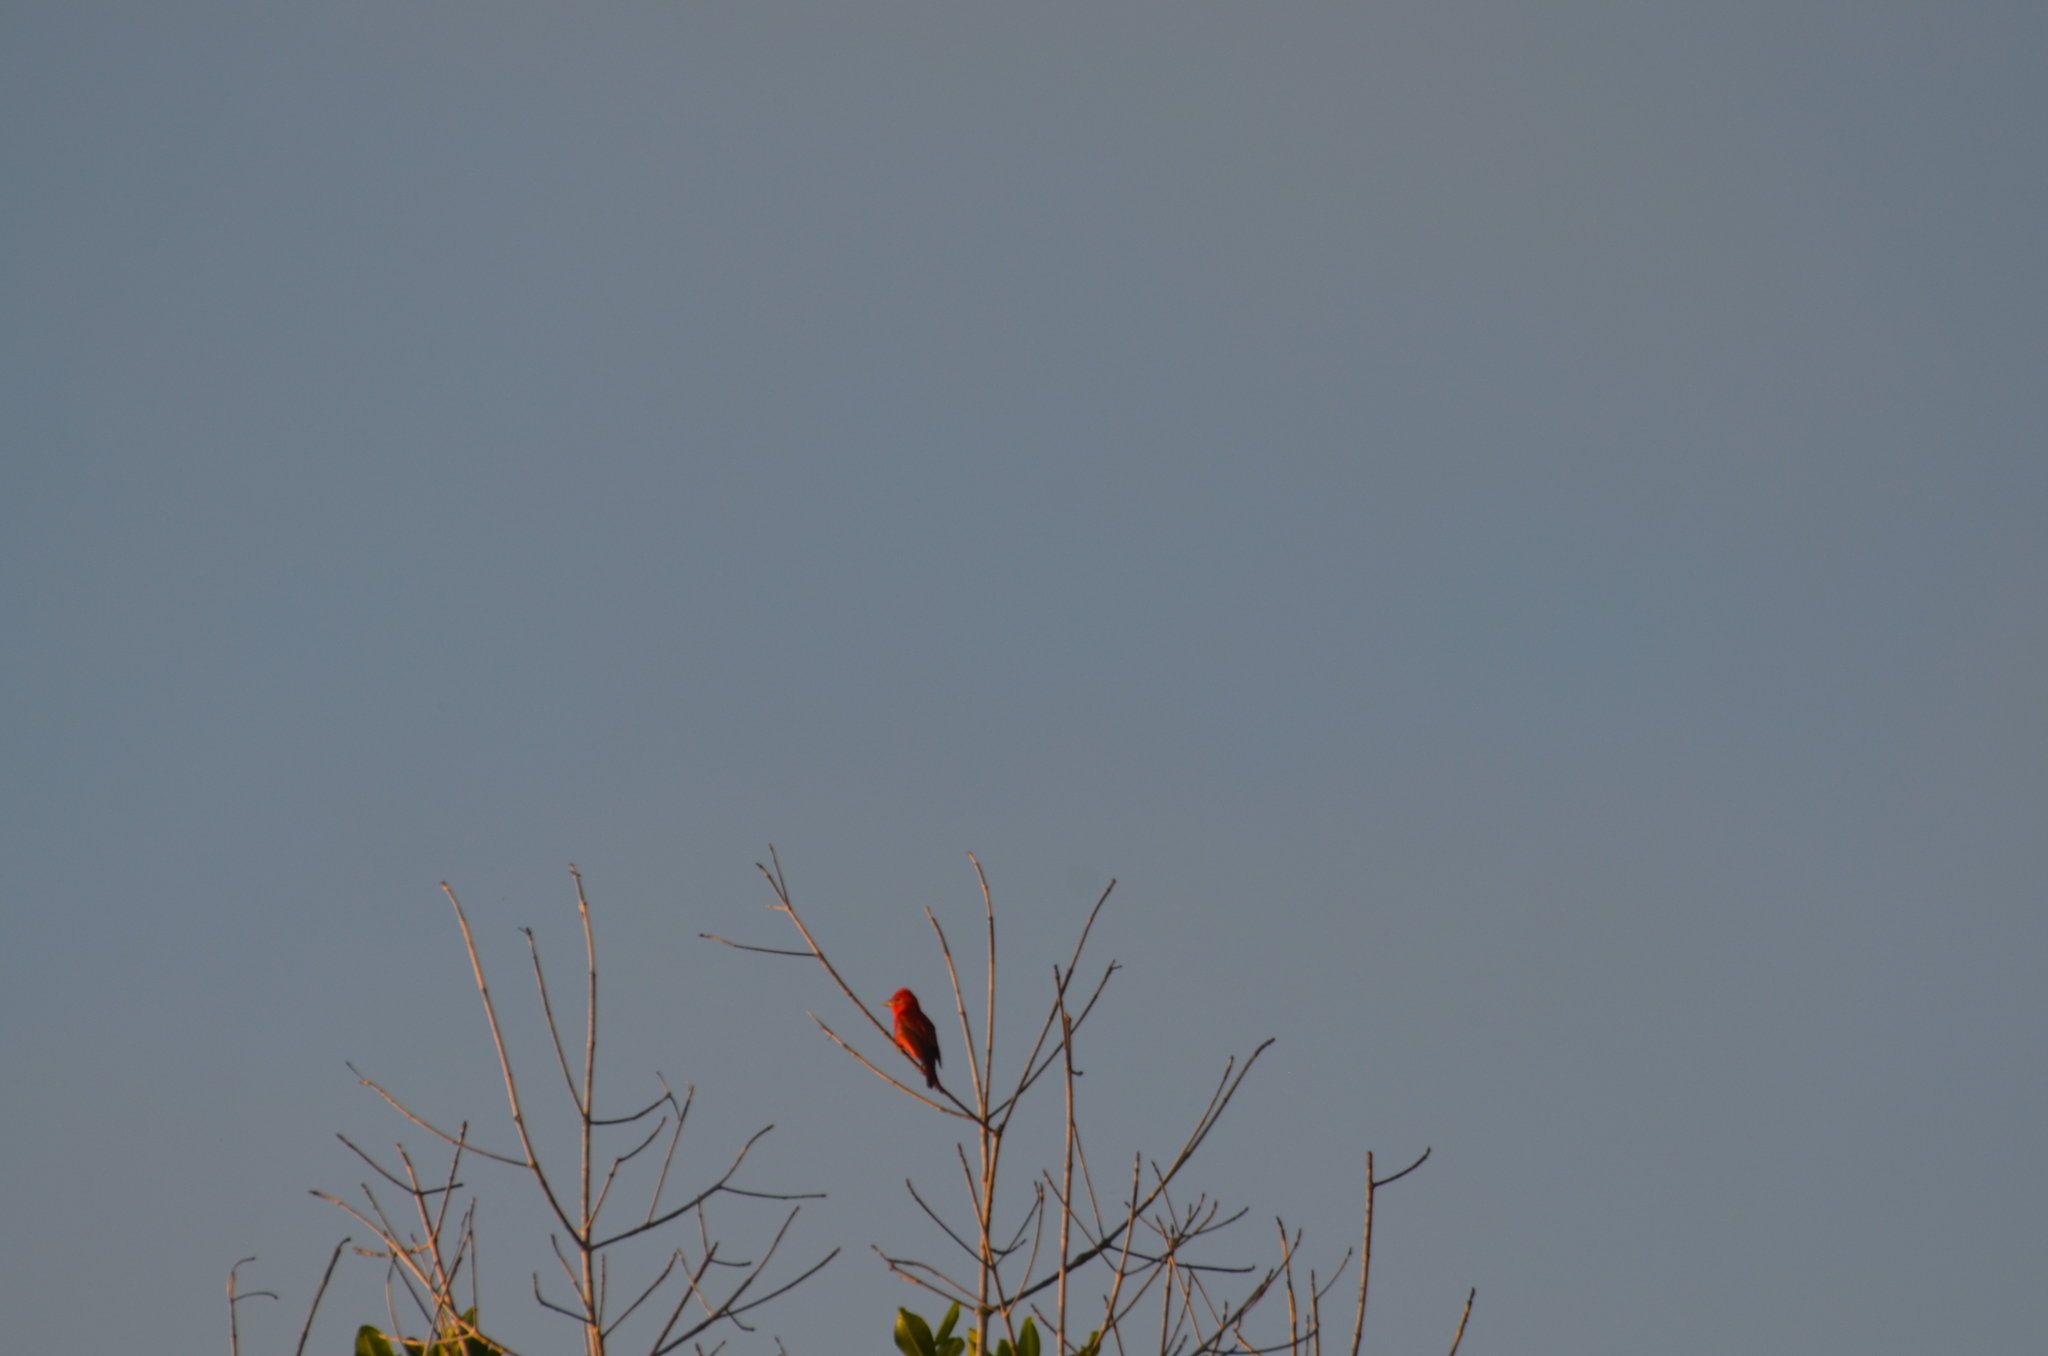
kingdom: Animalia
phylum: Chordata
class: Aves
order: Passeriformes
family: Tyrannidae
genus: Pyrocephalus
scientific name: Pyrocephalus rubinus
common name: Vermilion flycatcher
